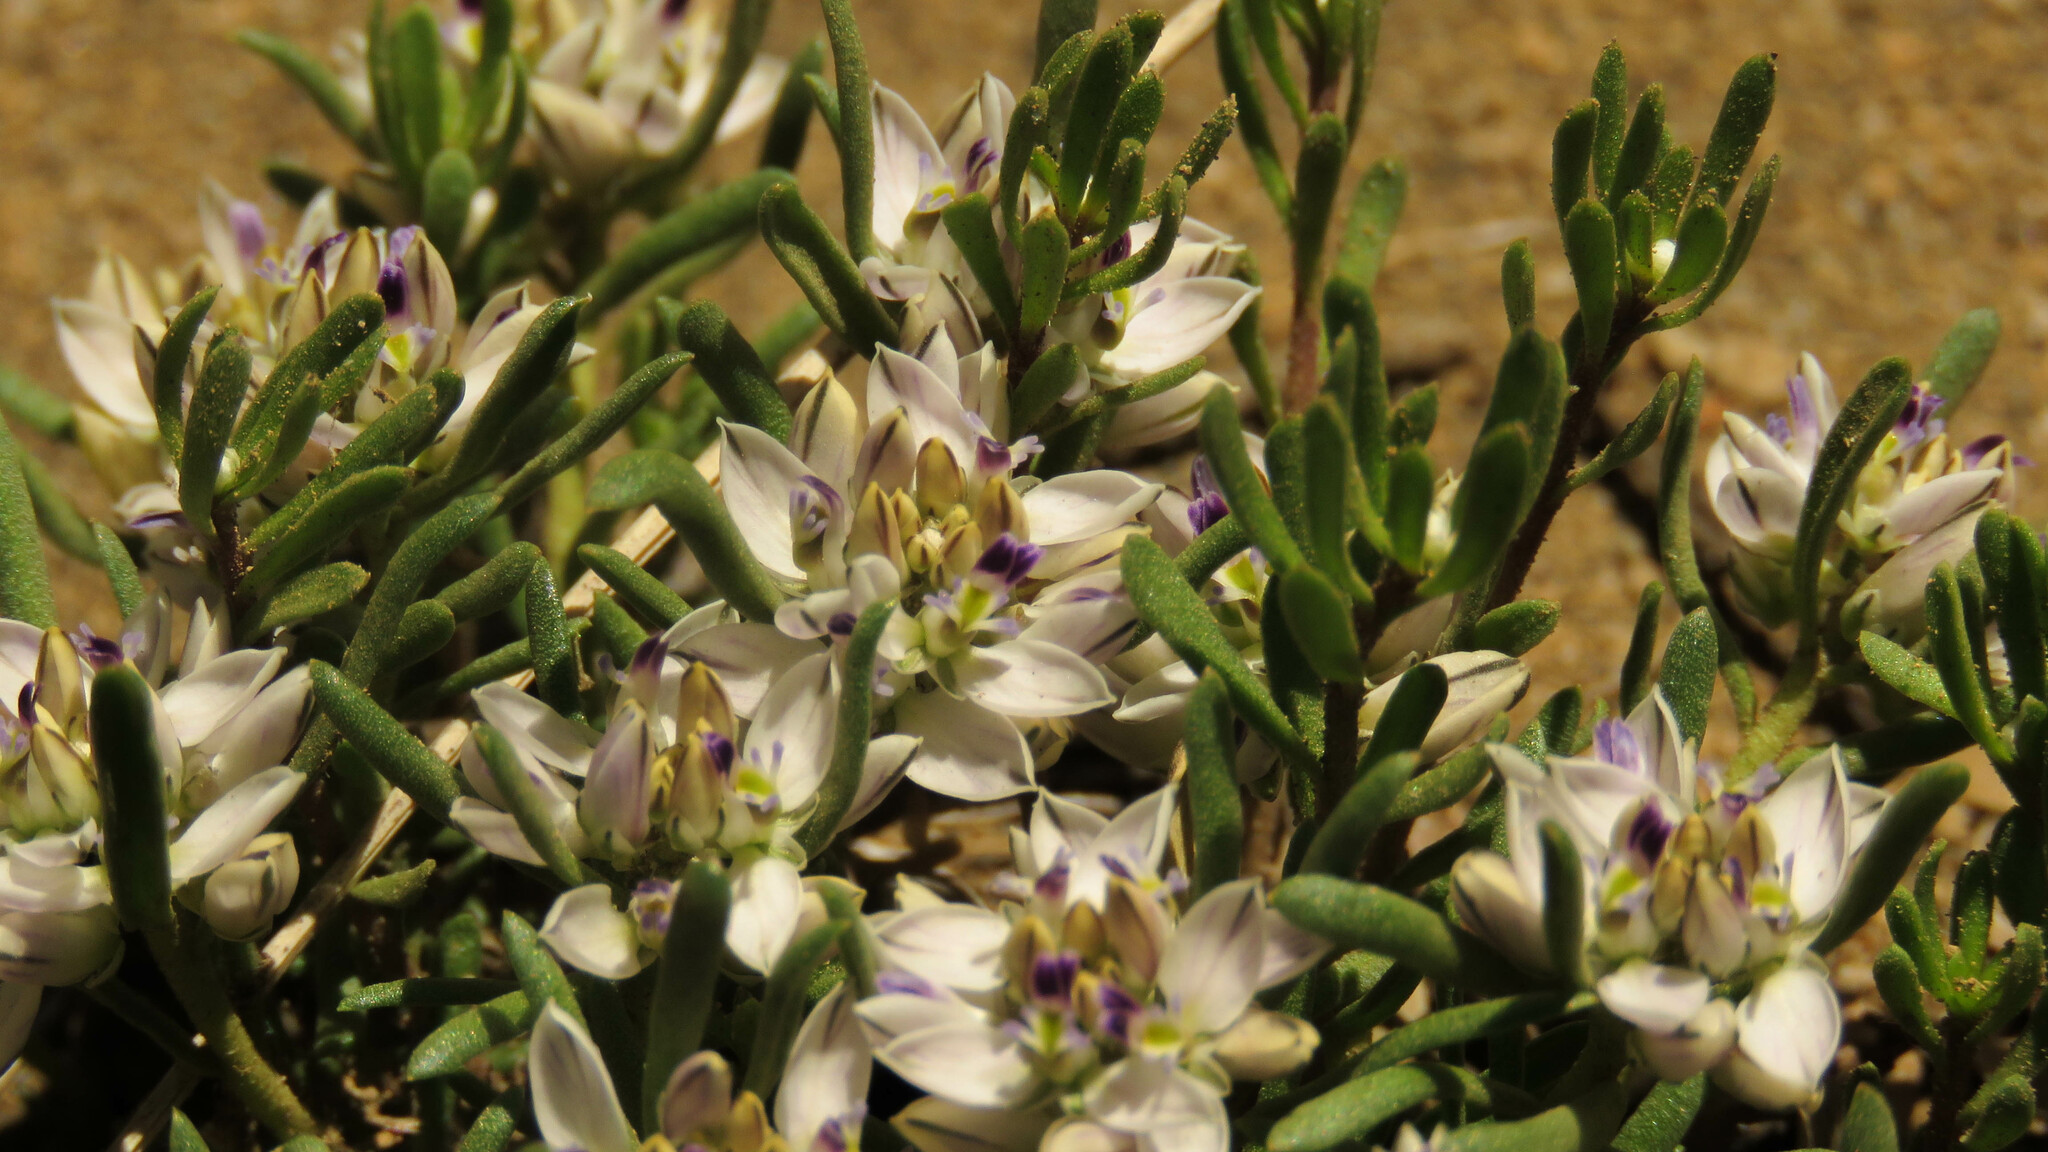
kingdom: Plantae
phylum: Tracheophyta
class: Magnoliopsida
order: Fabales
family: Polygalaceae
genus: Polygala
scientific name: Polygala salasiana
